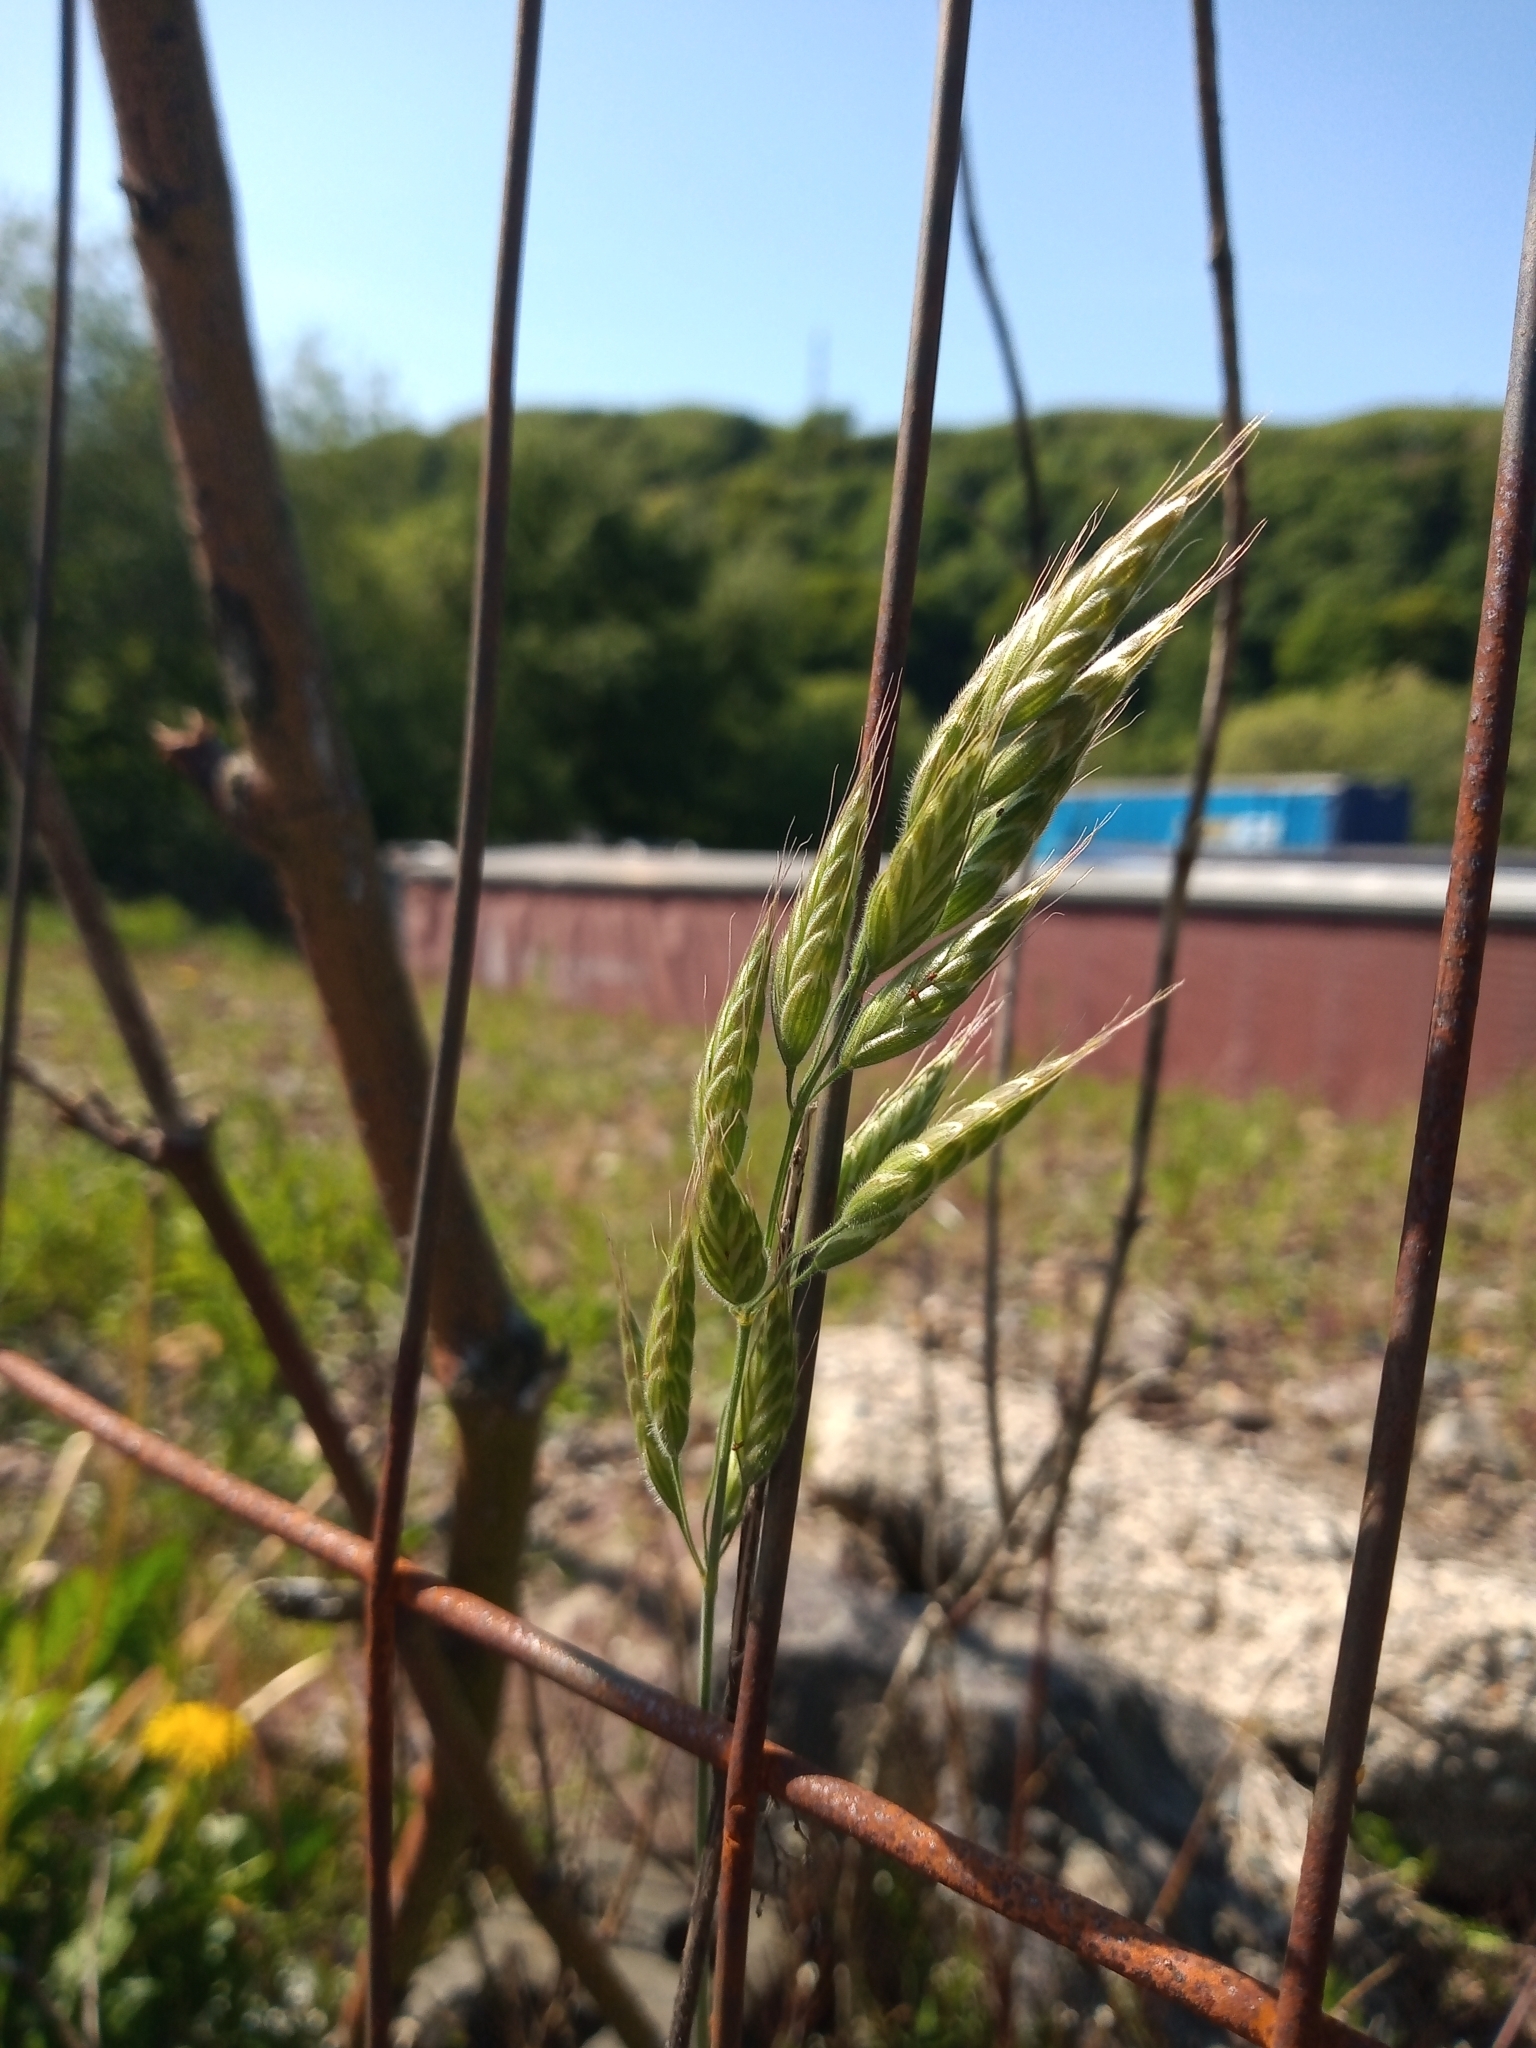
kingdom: Plantae
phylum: Tracheophyta
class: Liliopsida
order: Poales
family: Poaceae
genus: Bromus
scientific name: Bromus hordeaceus
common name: Soft brome
